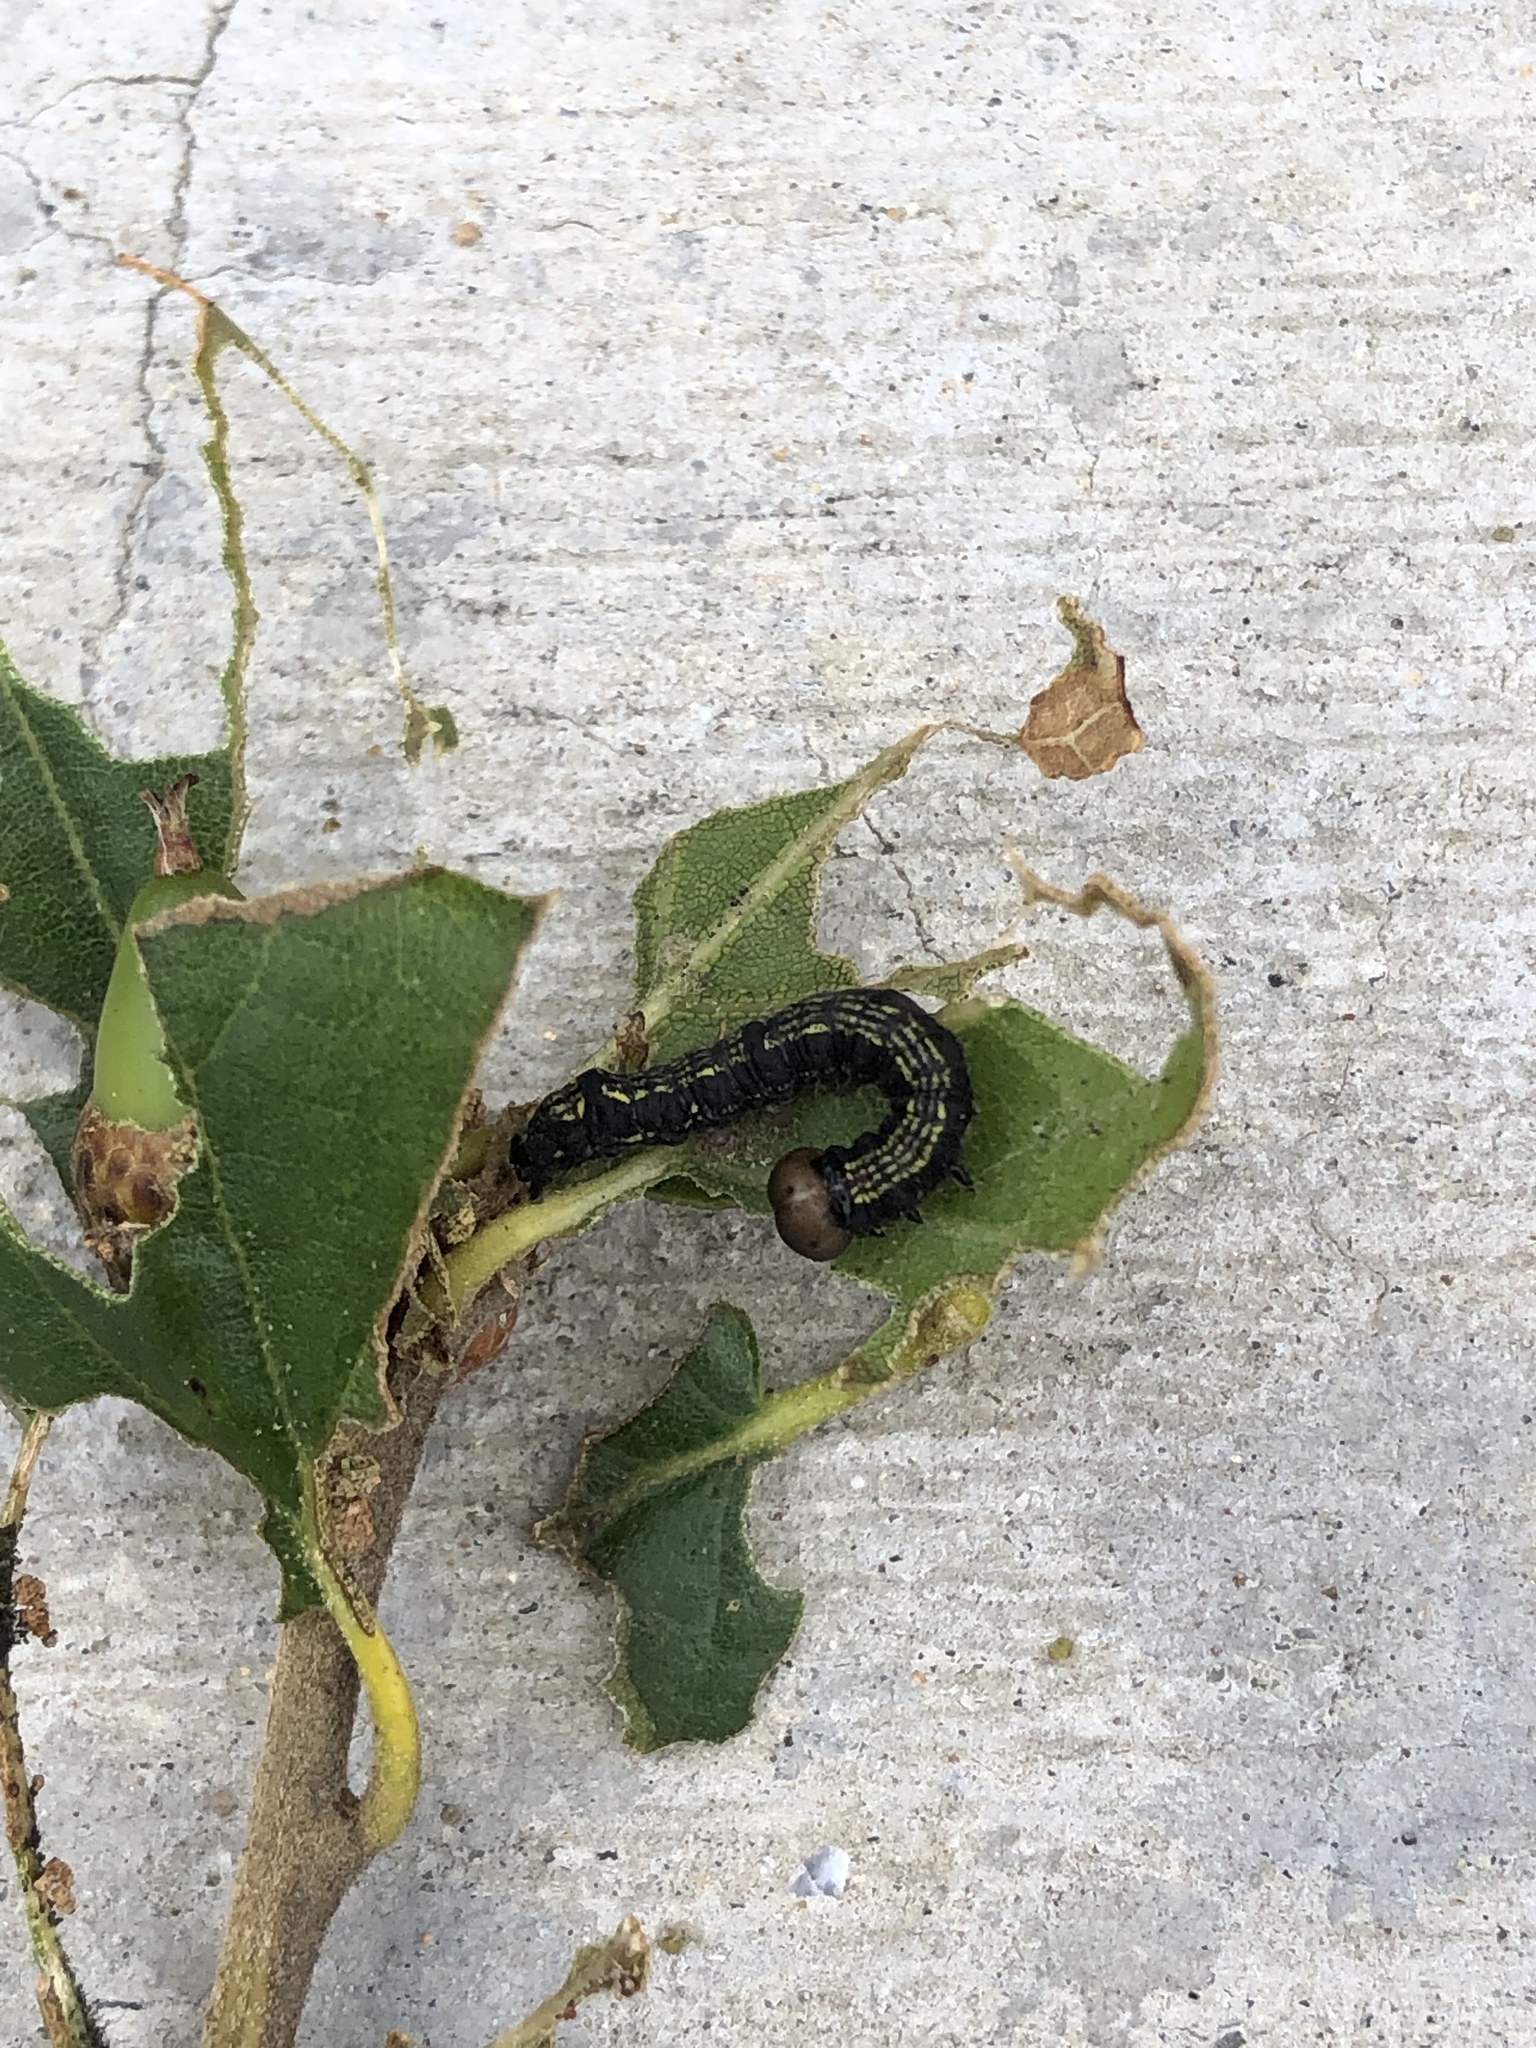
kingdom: Animalia
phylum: Arthropoda
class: Insecta
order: Lepidoptera
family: Notodontidae
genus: Phryganidia
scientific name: Phryganidia californica
